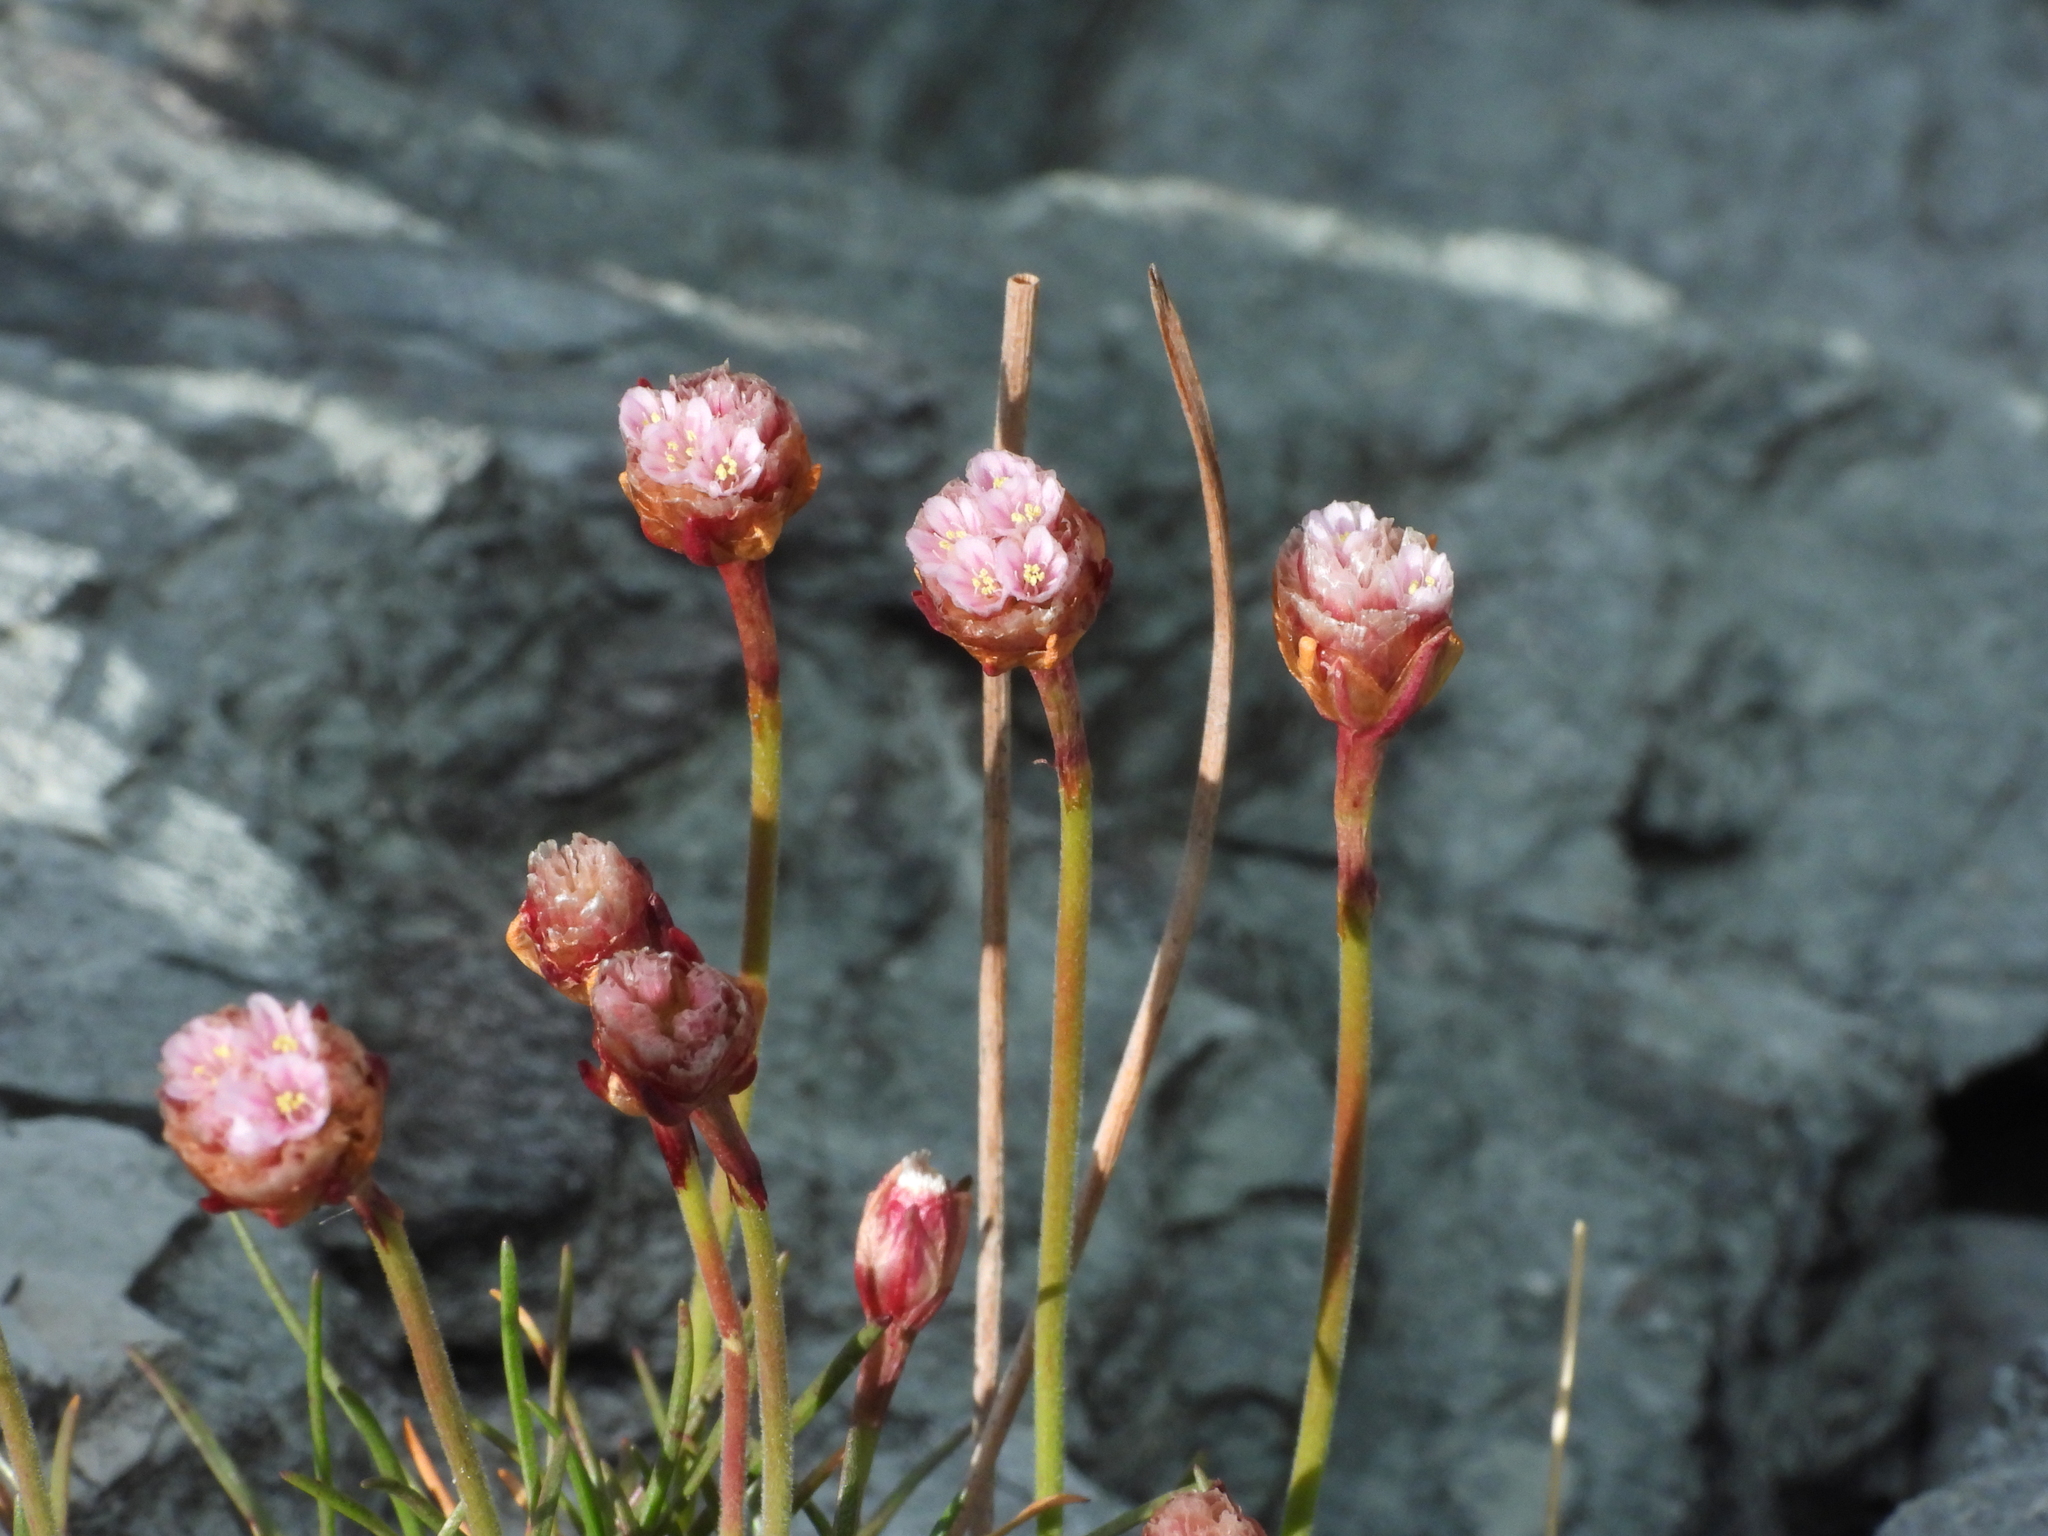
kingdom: Plantae
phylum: Tracheophyta
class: Magnoliopsida
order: Caryophyllales
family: Plumbaginaceae
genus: Armeria
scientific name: Armeria curvifolia
